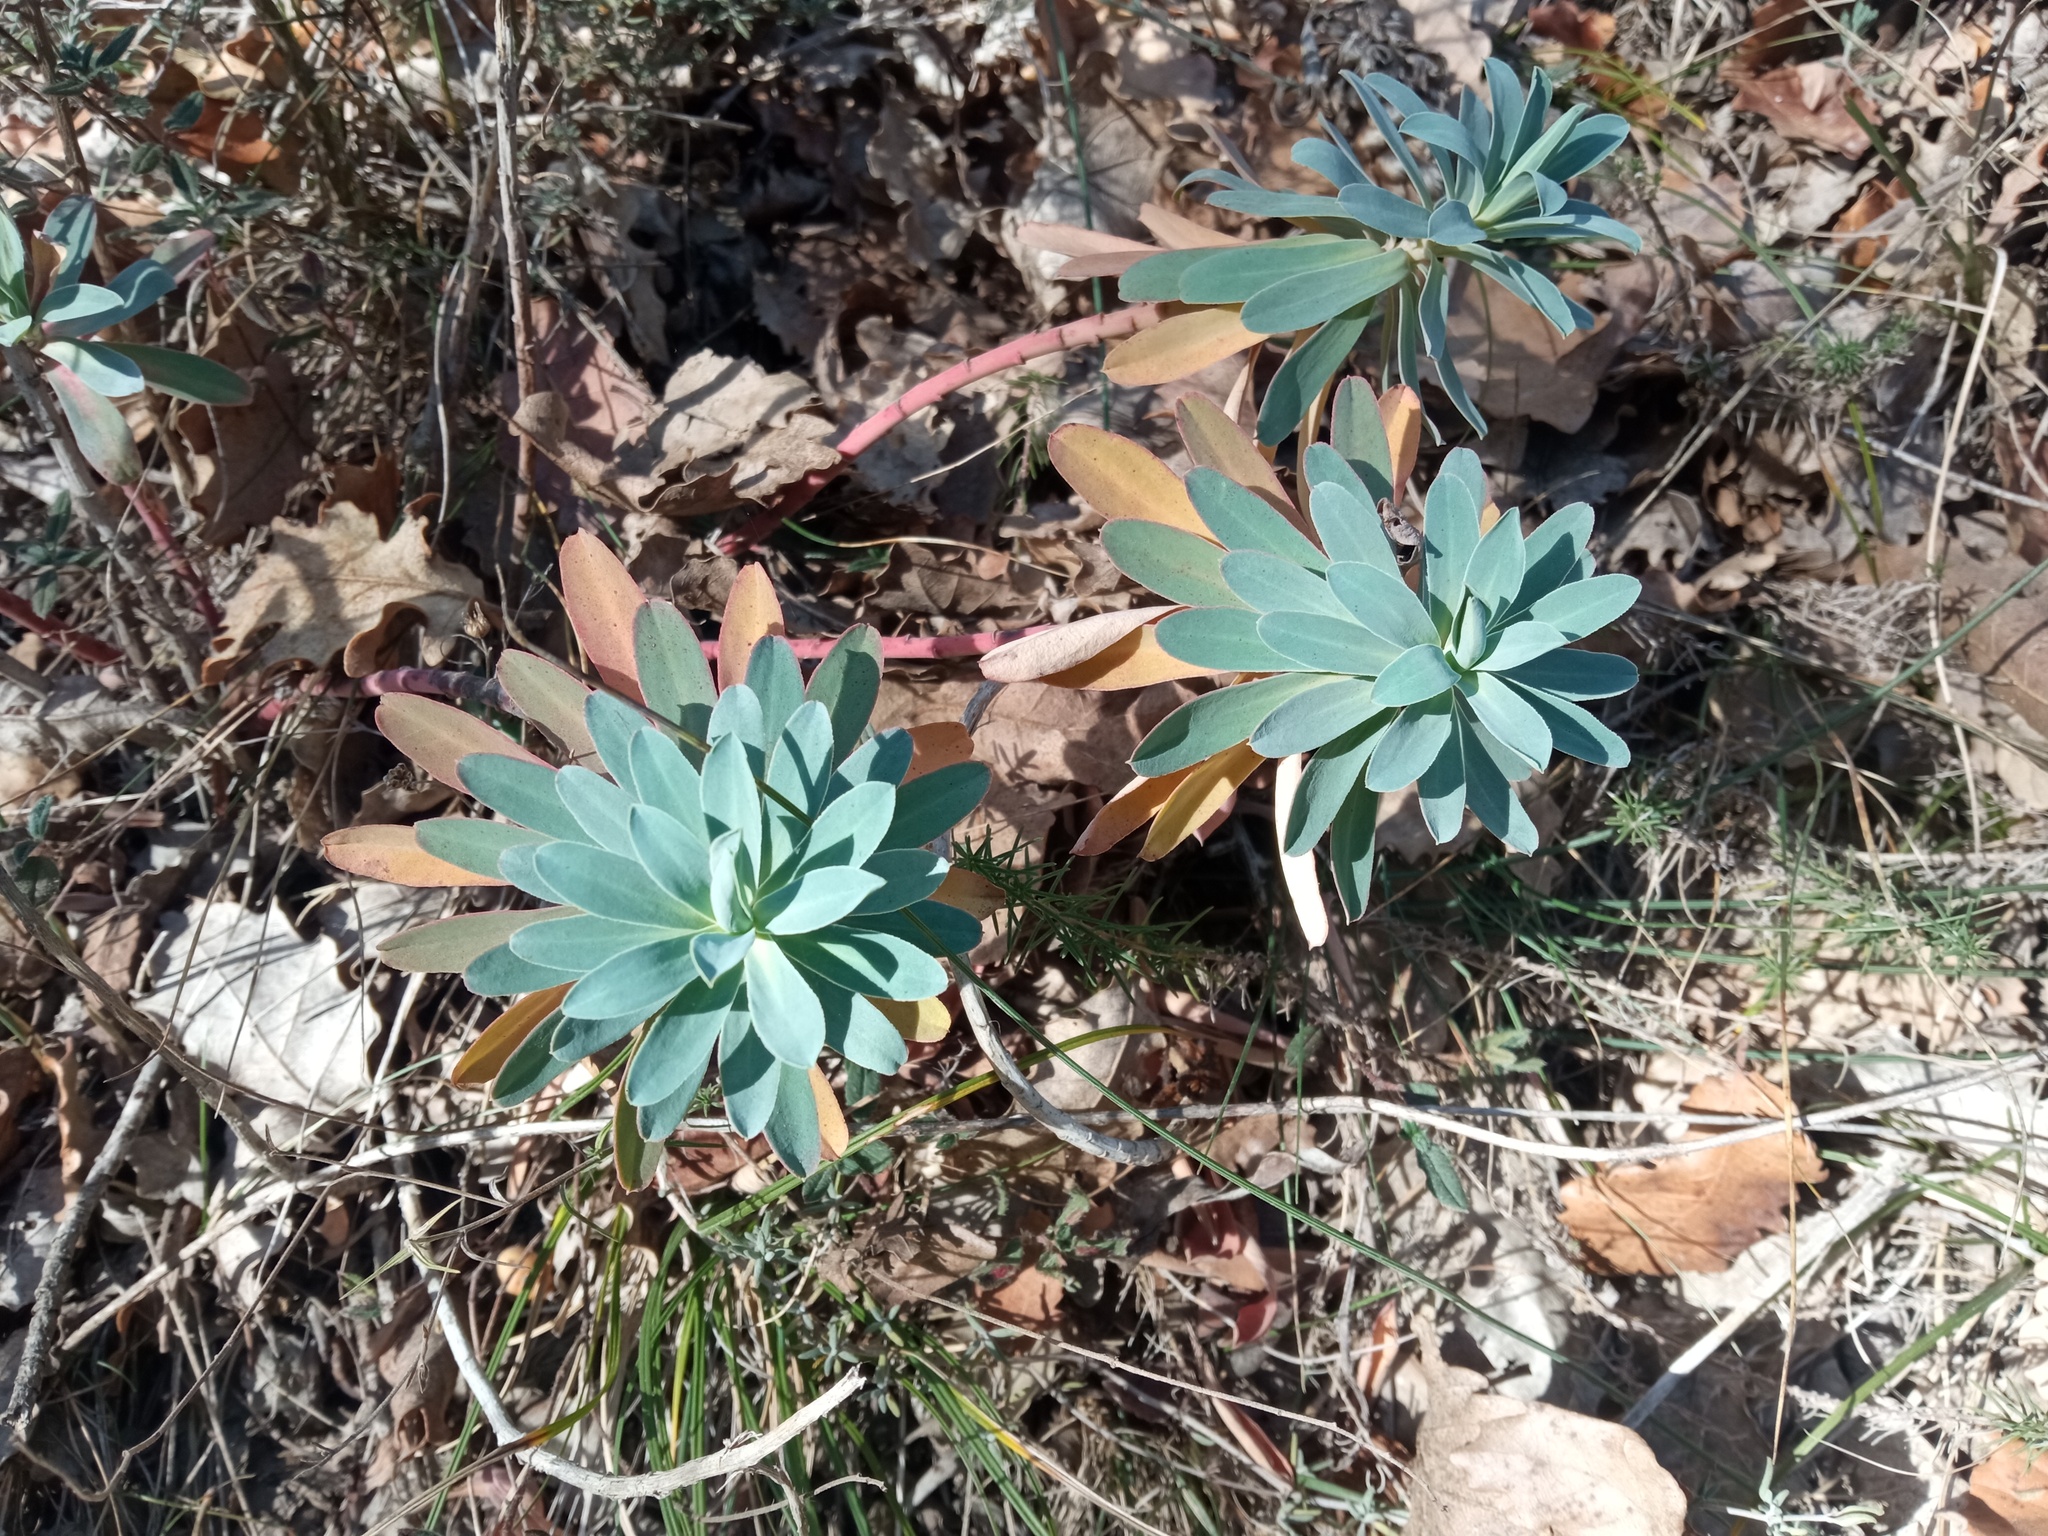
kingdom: Plantae
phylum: Tracheophyta
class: Magnoliopsida
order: Malpighiales
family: Euphorbiaceae
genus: Euphorbia
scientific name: Euphorbia nicaeensis
